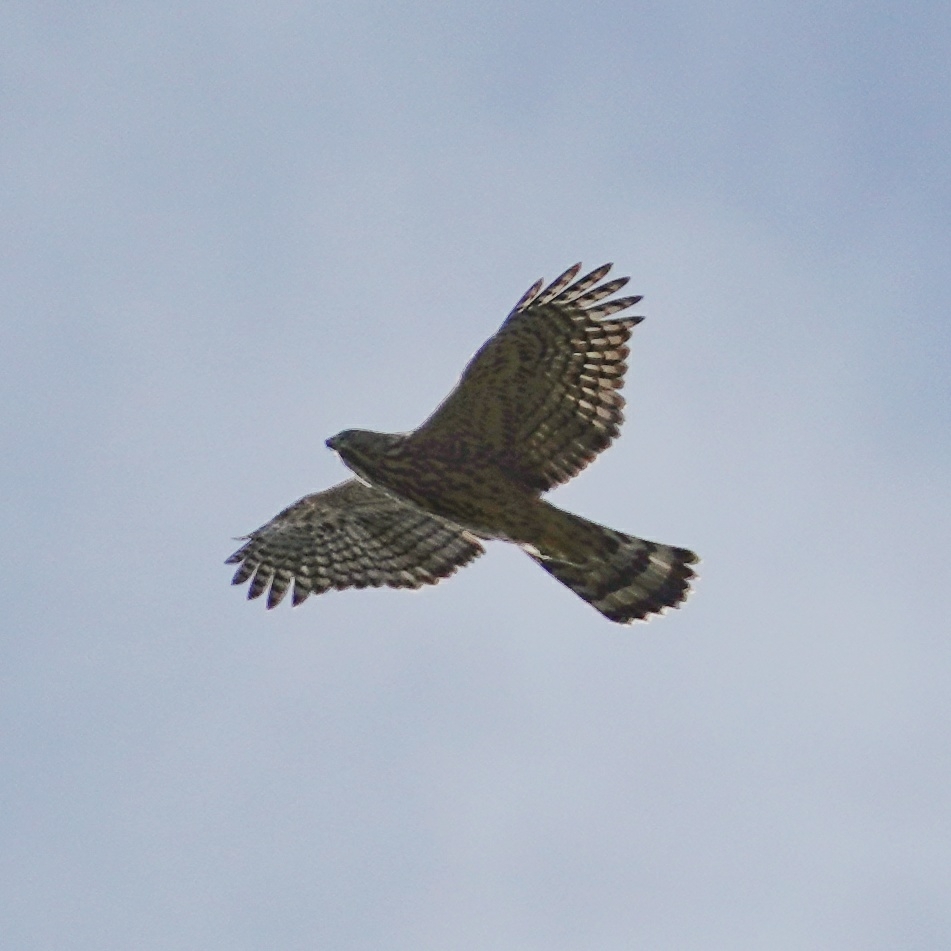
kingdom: Animalia
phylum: Chordata
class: Aves
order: Accipitriformes
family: Accipitridae
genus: Accipiter
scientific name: Accipiter gentilis
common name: Northern goshawk
